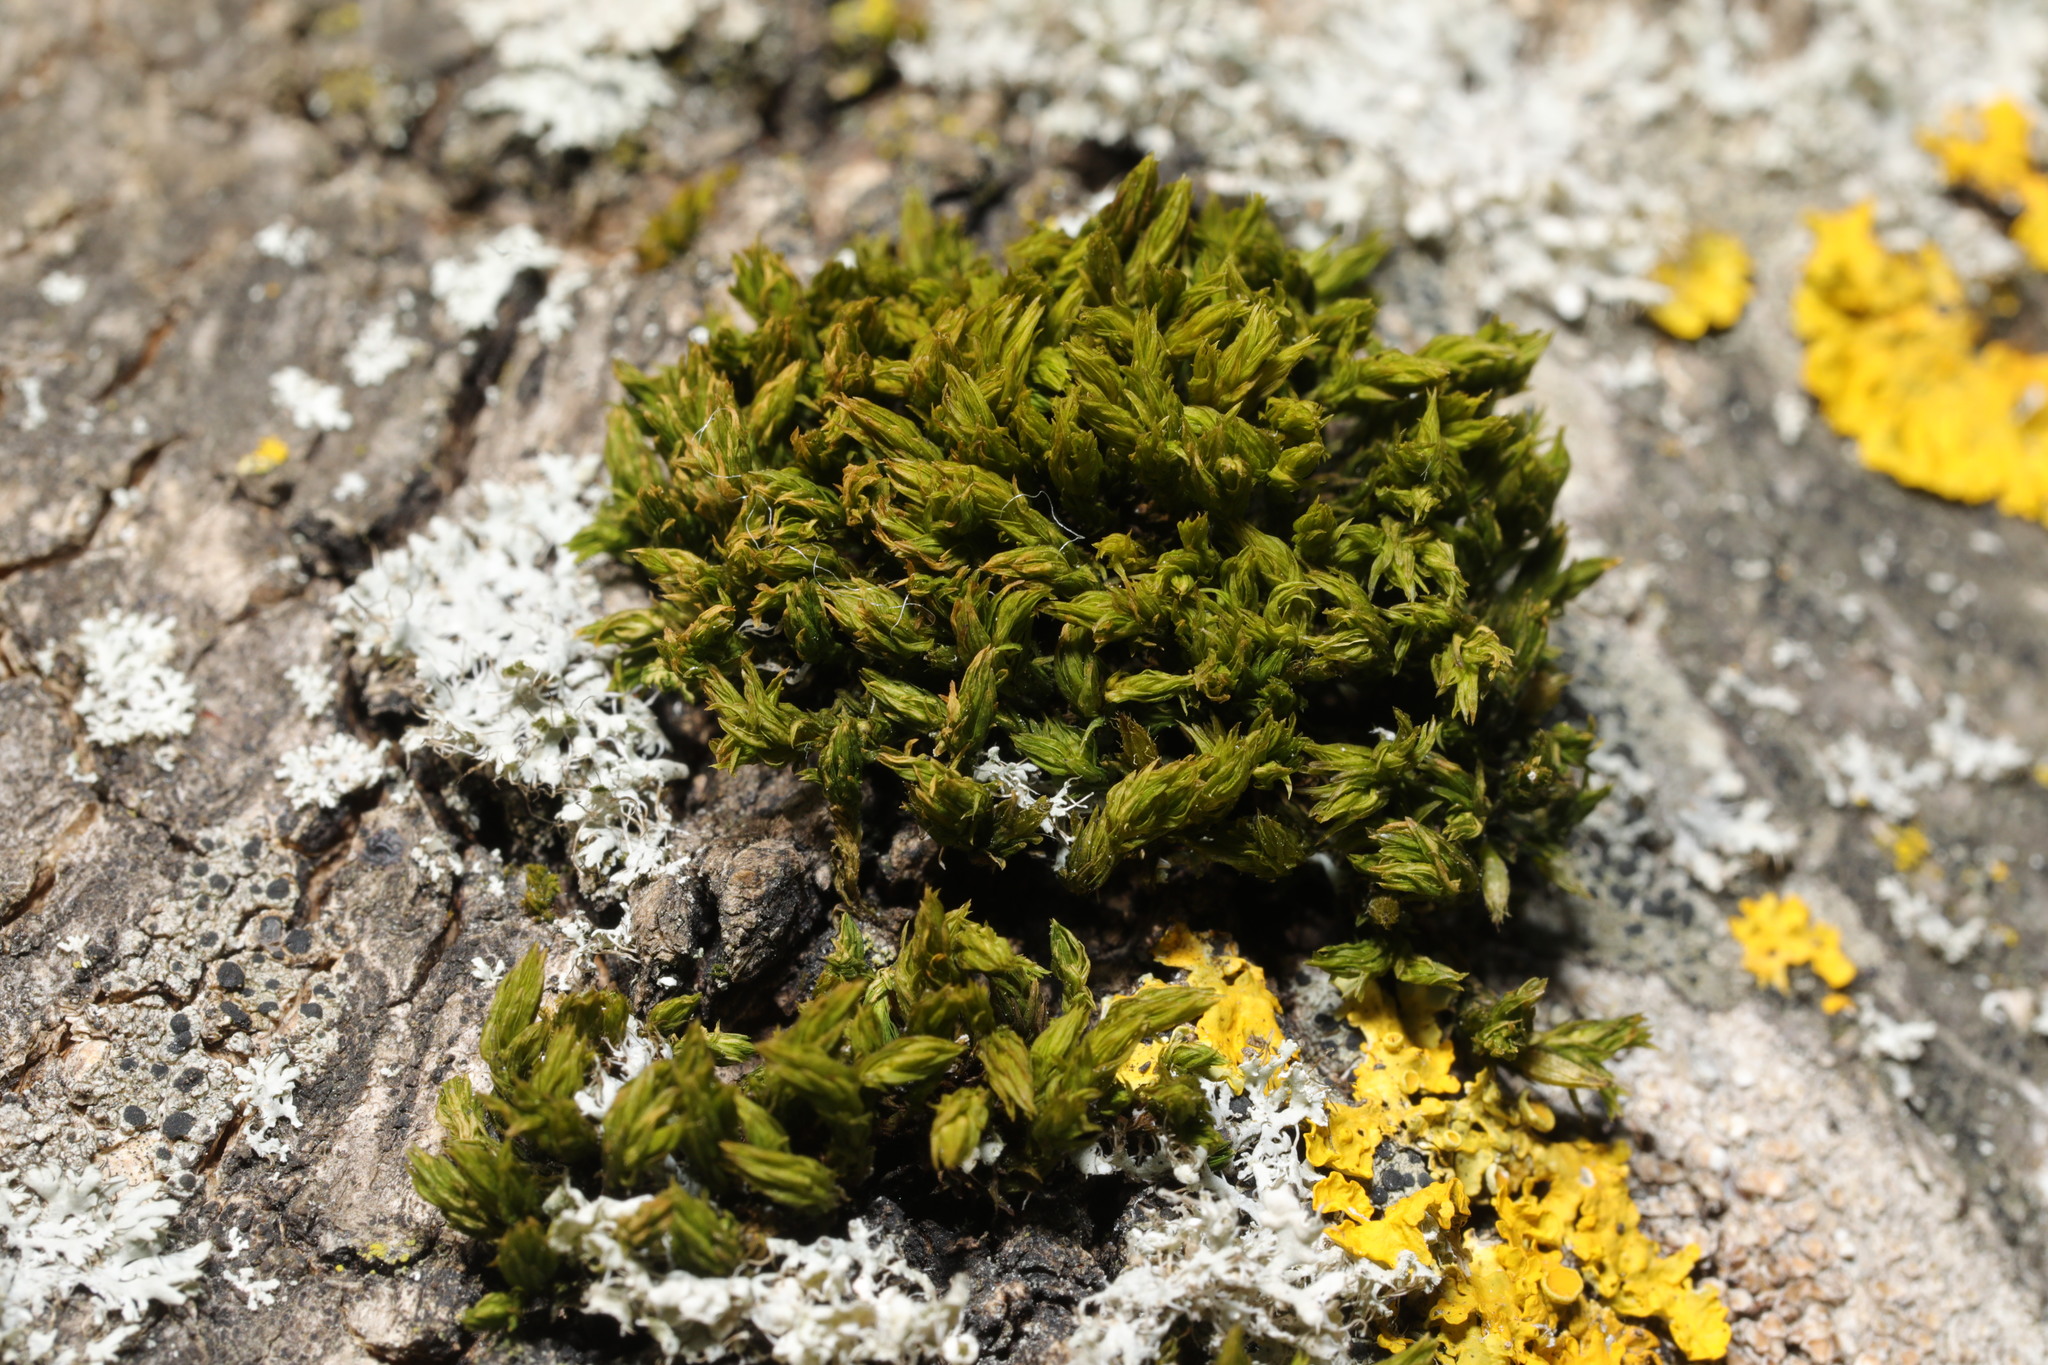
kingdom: Plantae
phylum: Bryophyta
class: Bryopsida
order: Orthotrichales
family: Orthotrichaceae
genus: Lewinskya
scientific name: Lewinskya affinis
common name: Wood bristle-moss
